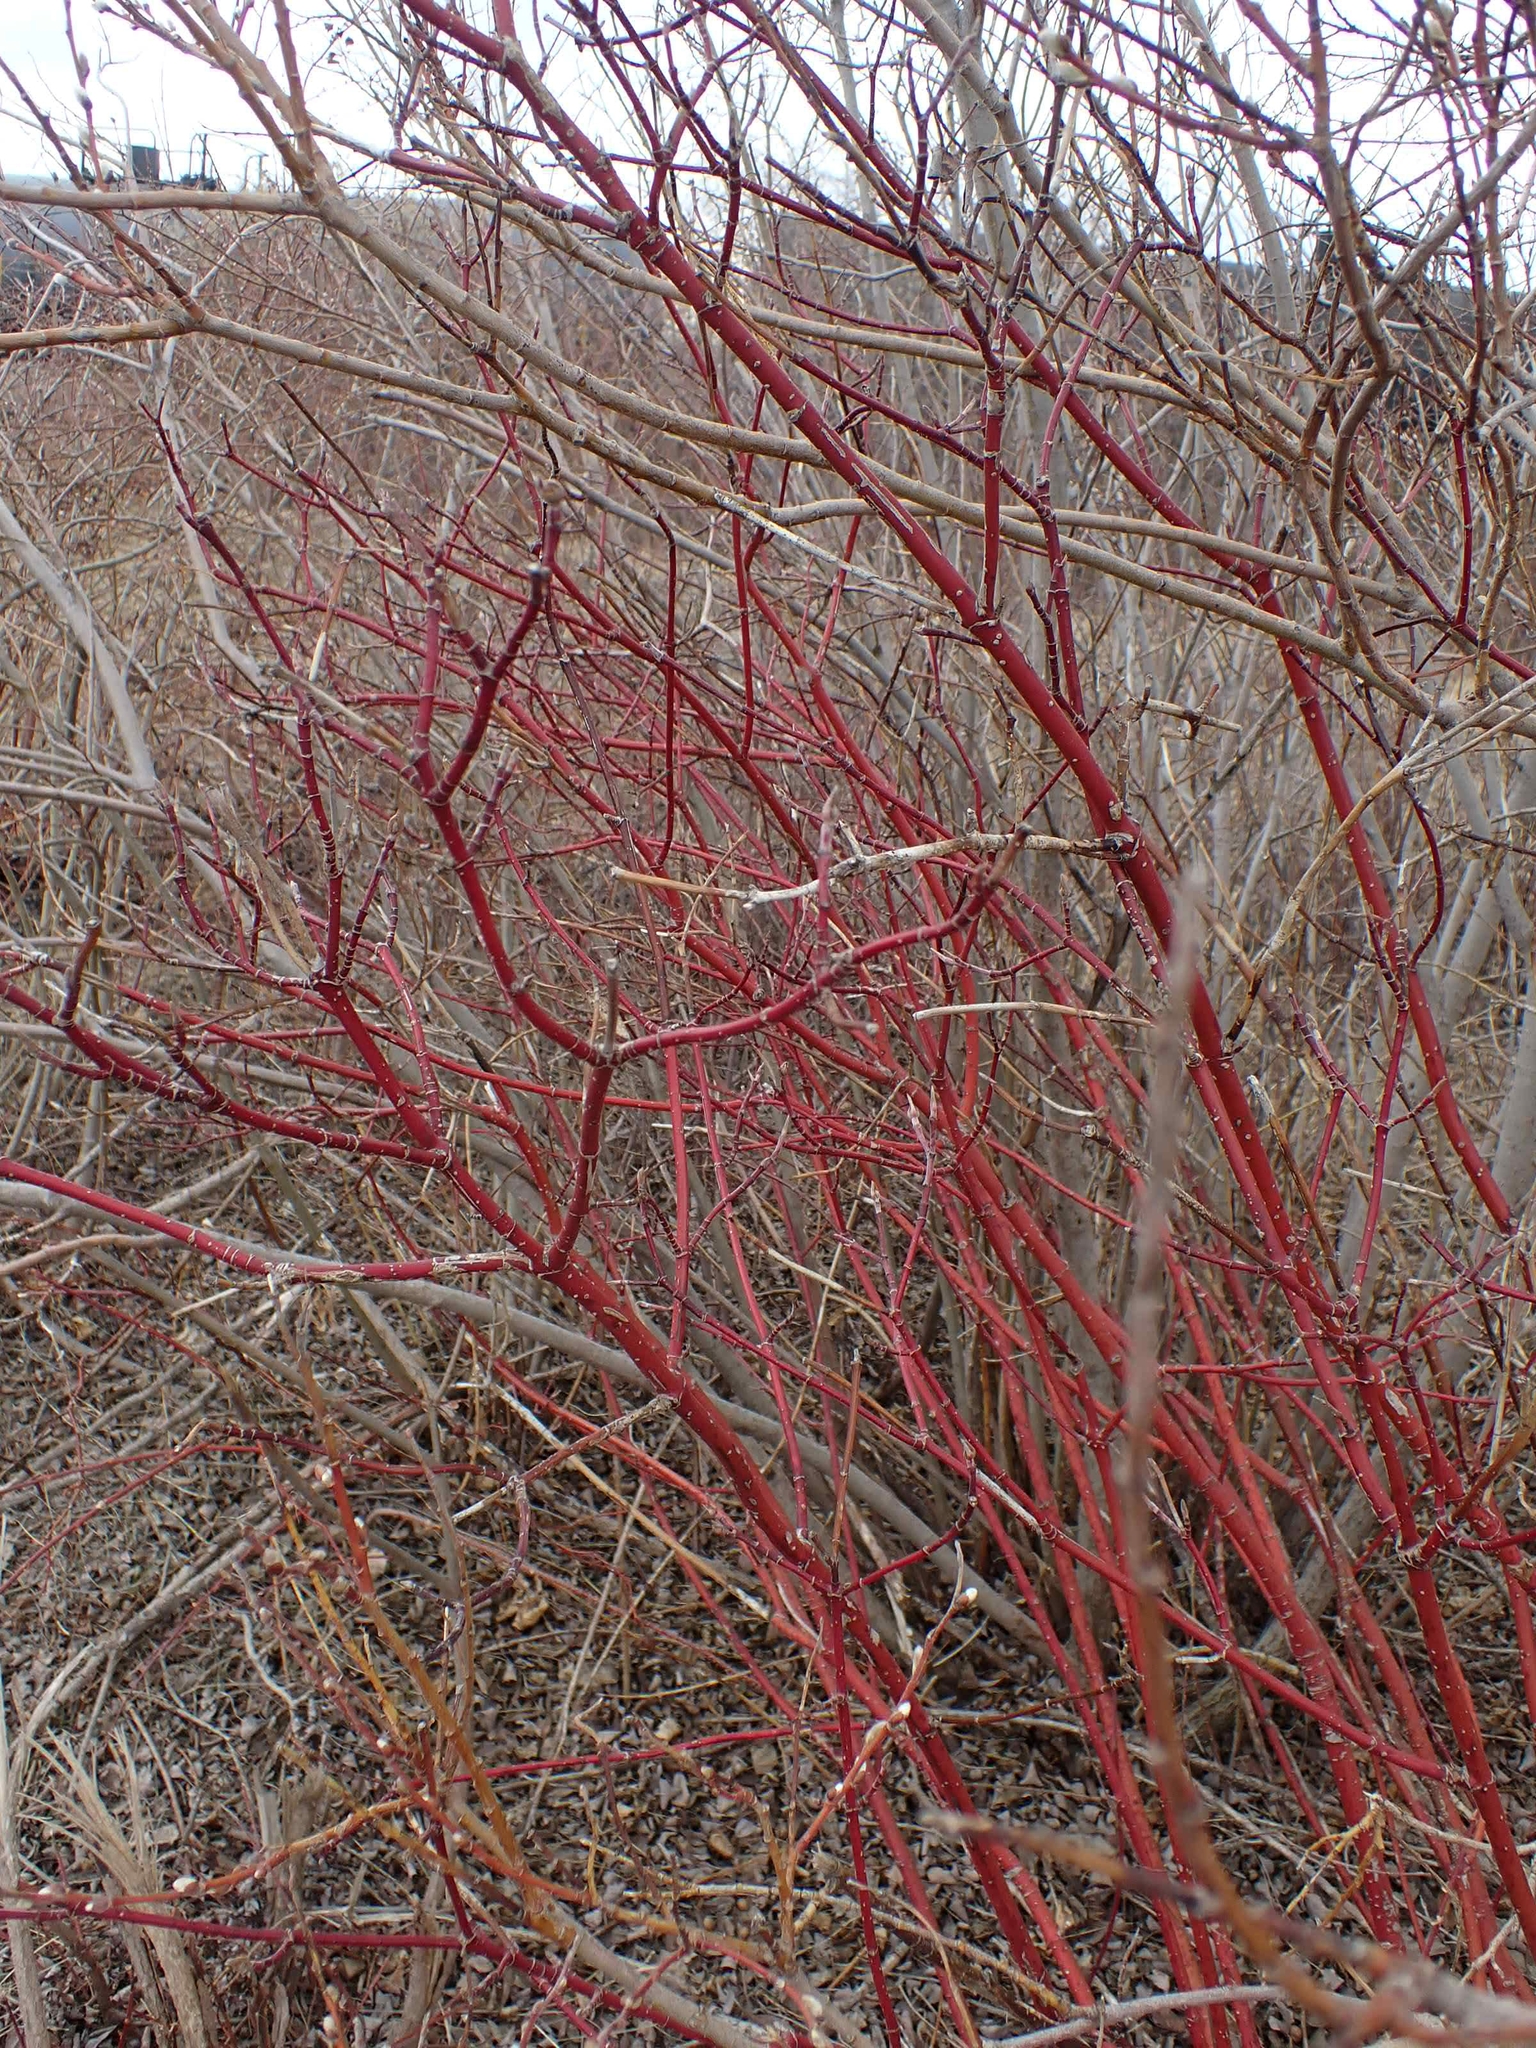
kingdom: Plantae
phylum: Tracheophyta
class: Magnoliopsida
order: Cornales
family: Cornaceae
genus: Cornus
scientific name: Cornus sericea
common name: Red-osier dogwood
